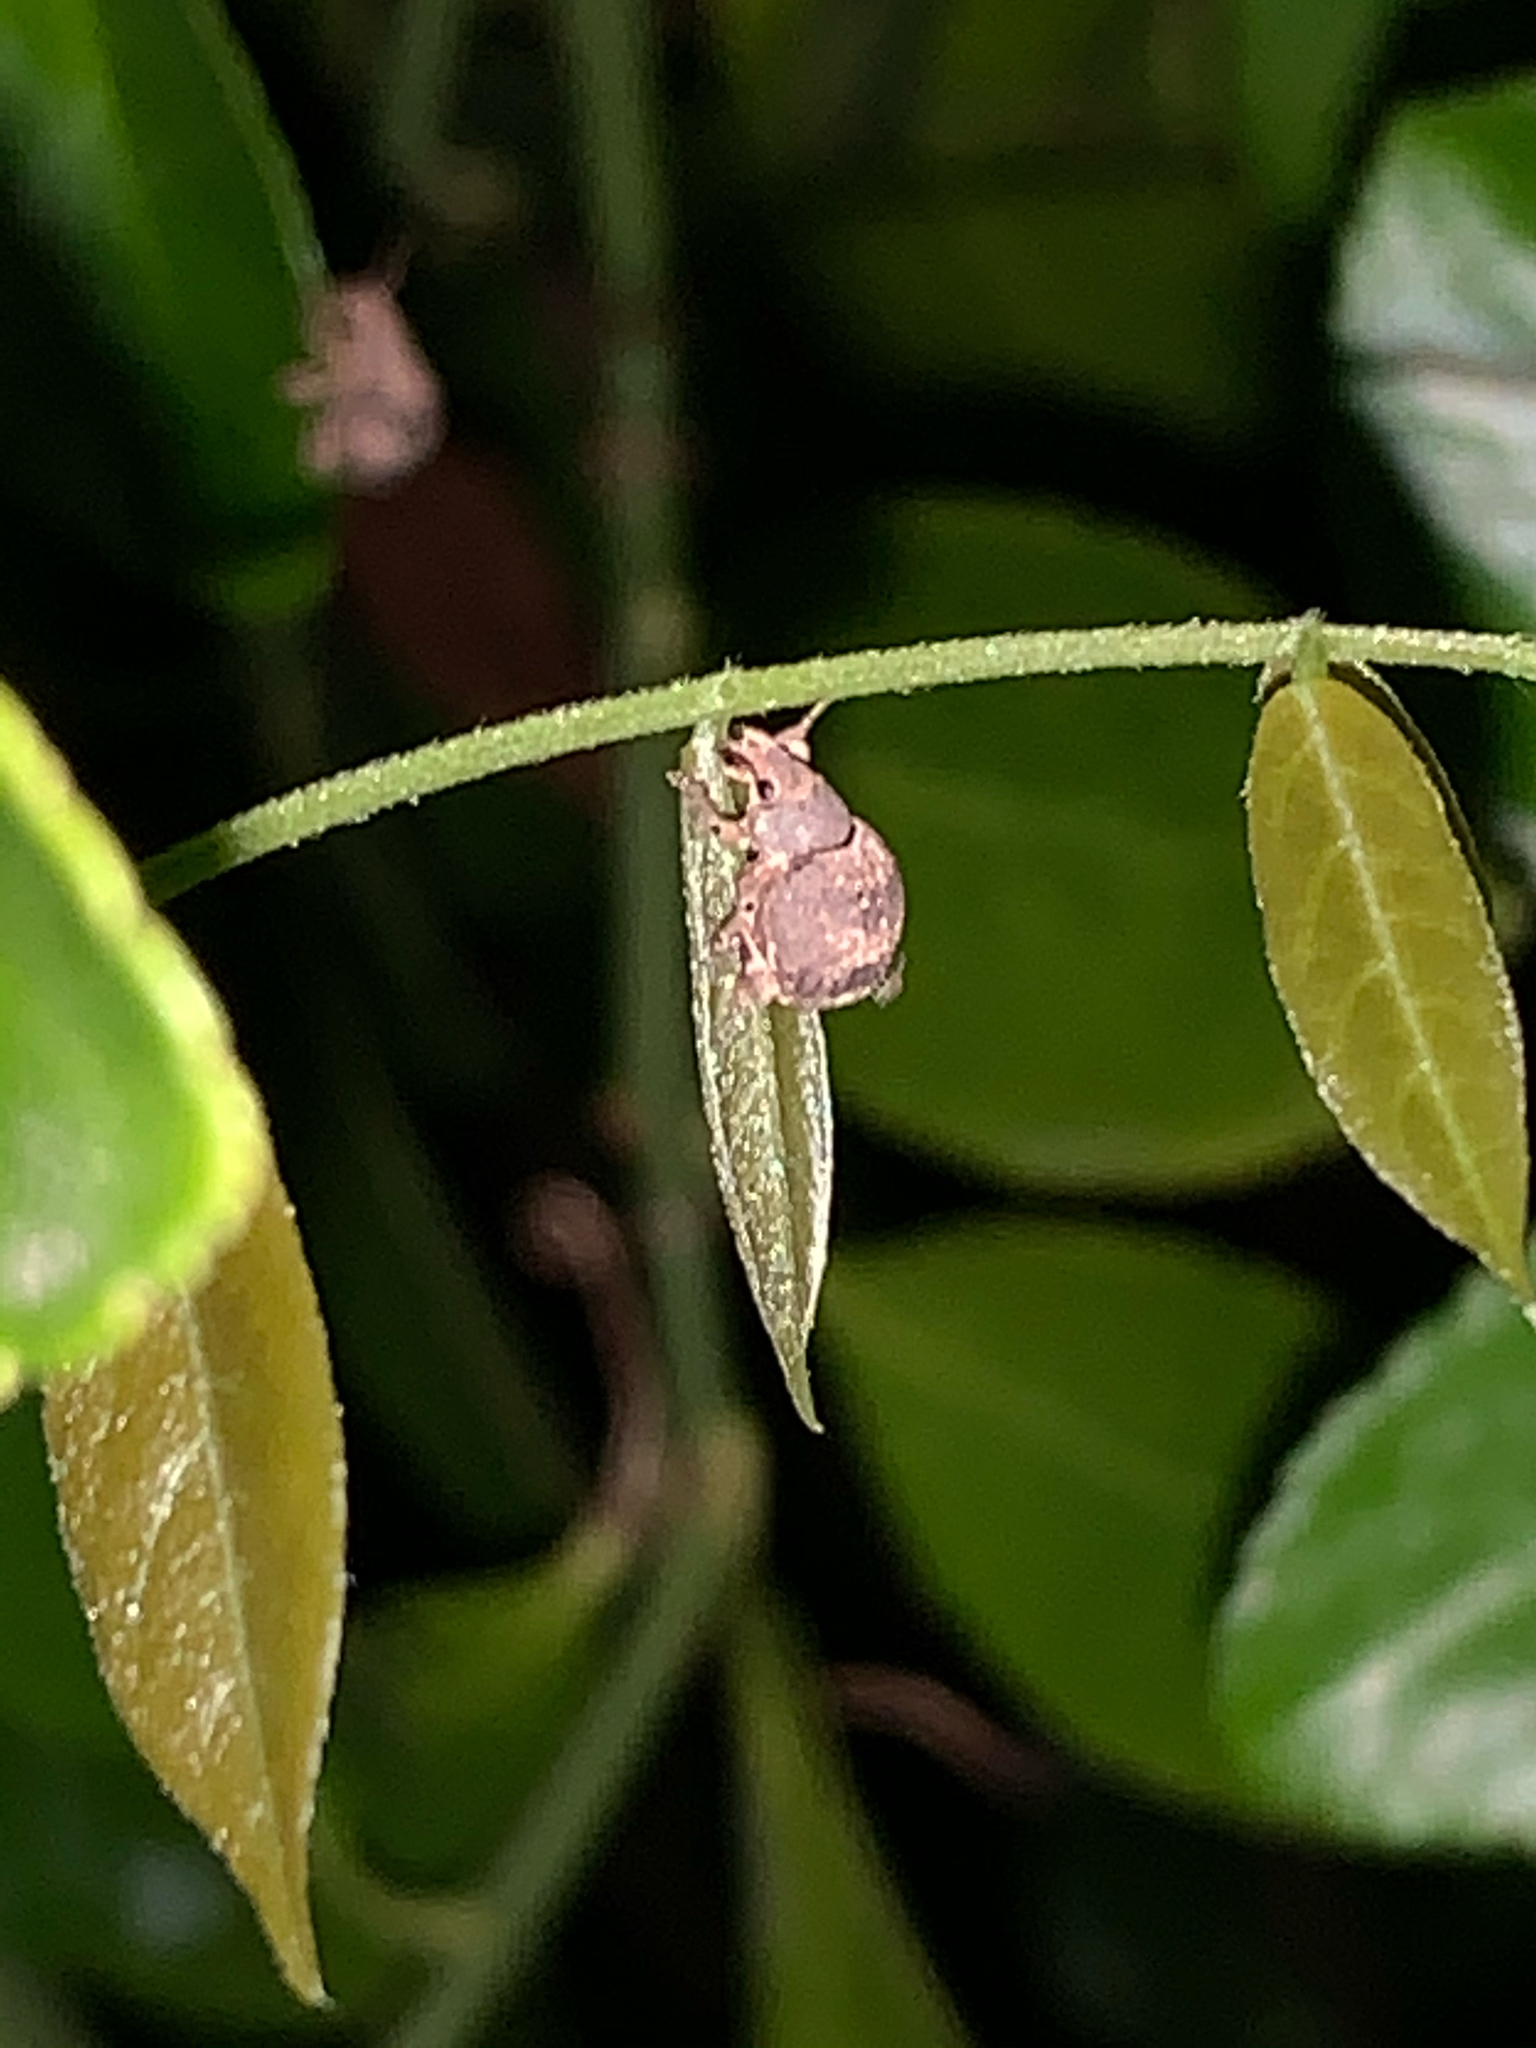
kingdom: Animalia
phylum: Arthropoda
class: Insecta
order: Coleoptera
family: Curculionidae
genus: Pseudocneorhinus
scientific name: Pseudocneorhinus bifasciatus
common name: Two-banded japanese weevil
